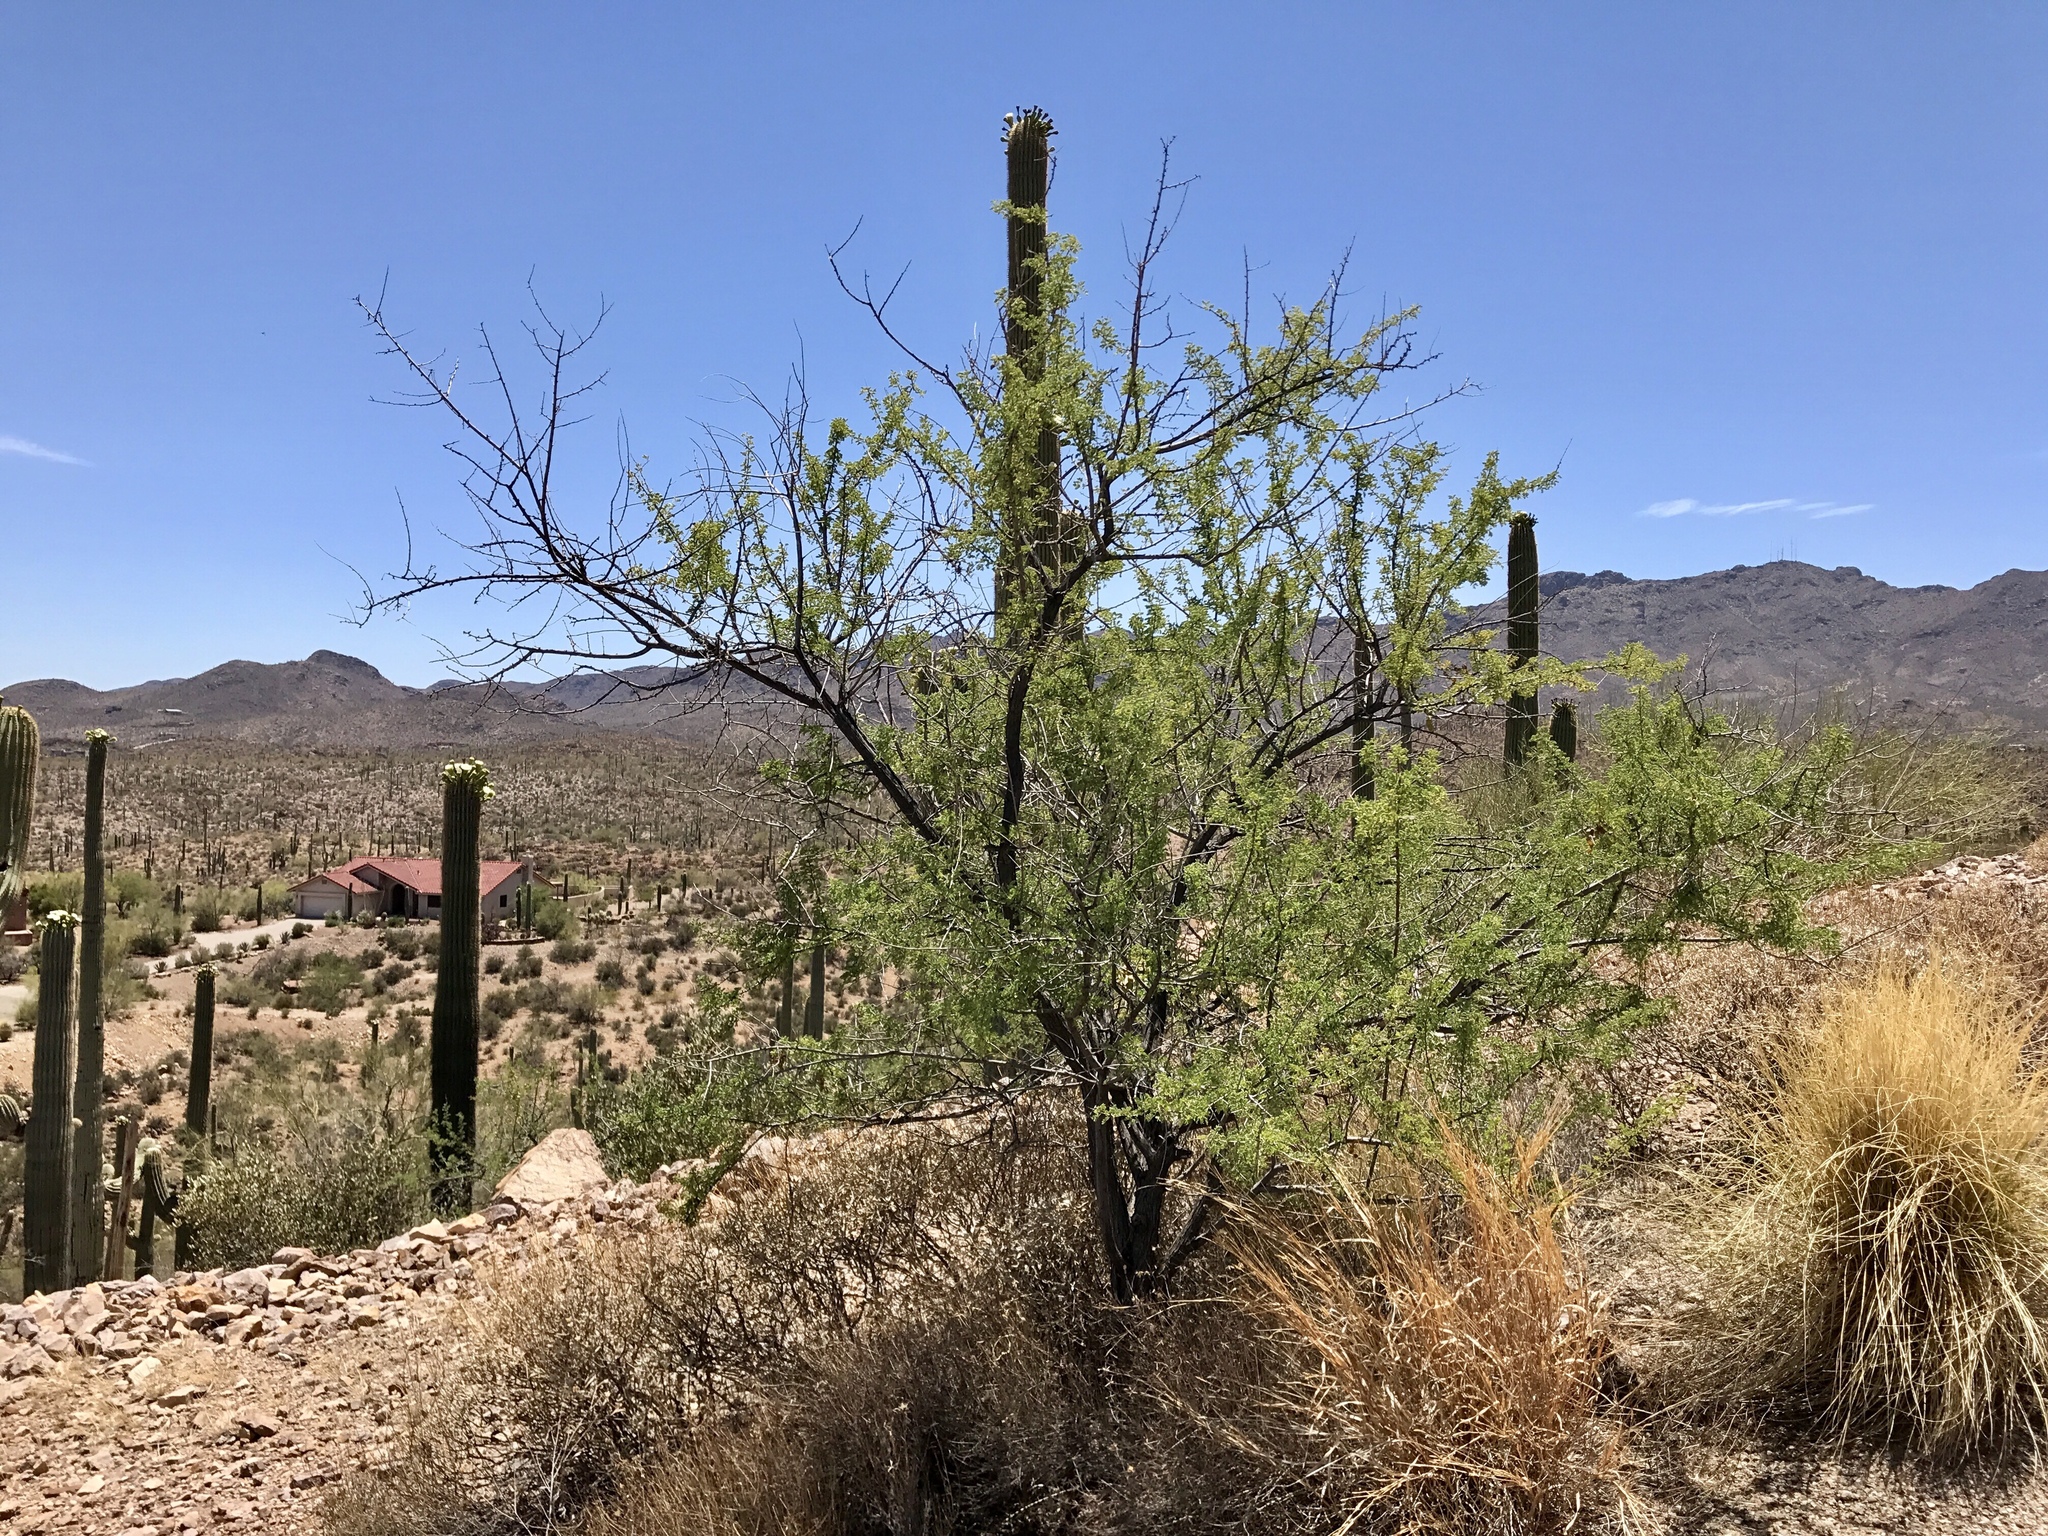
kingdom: Plantae
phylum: Tracheophyta
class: Magnoliopsida
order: Fabales
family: Fabaceae
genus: Prosopis
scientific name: Prosopis velutina
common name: Velvet mesquite
